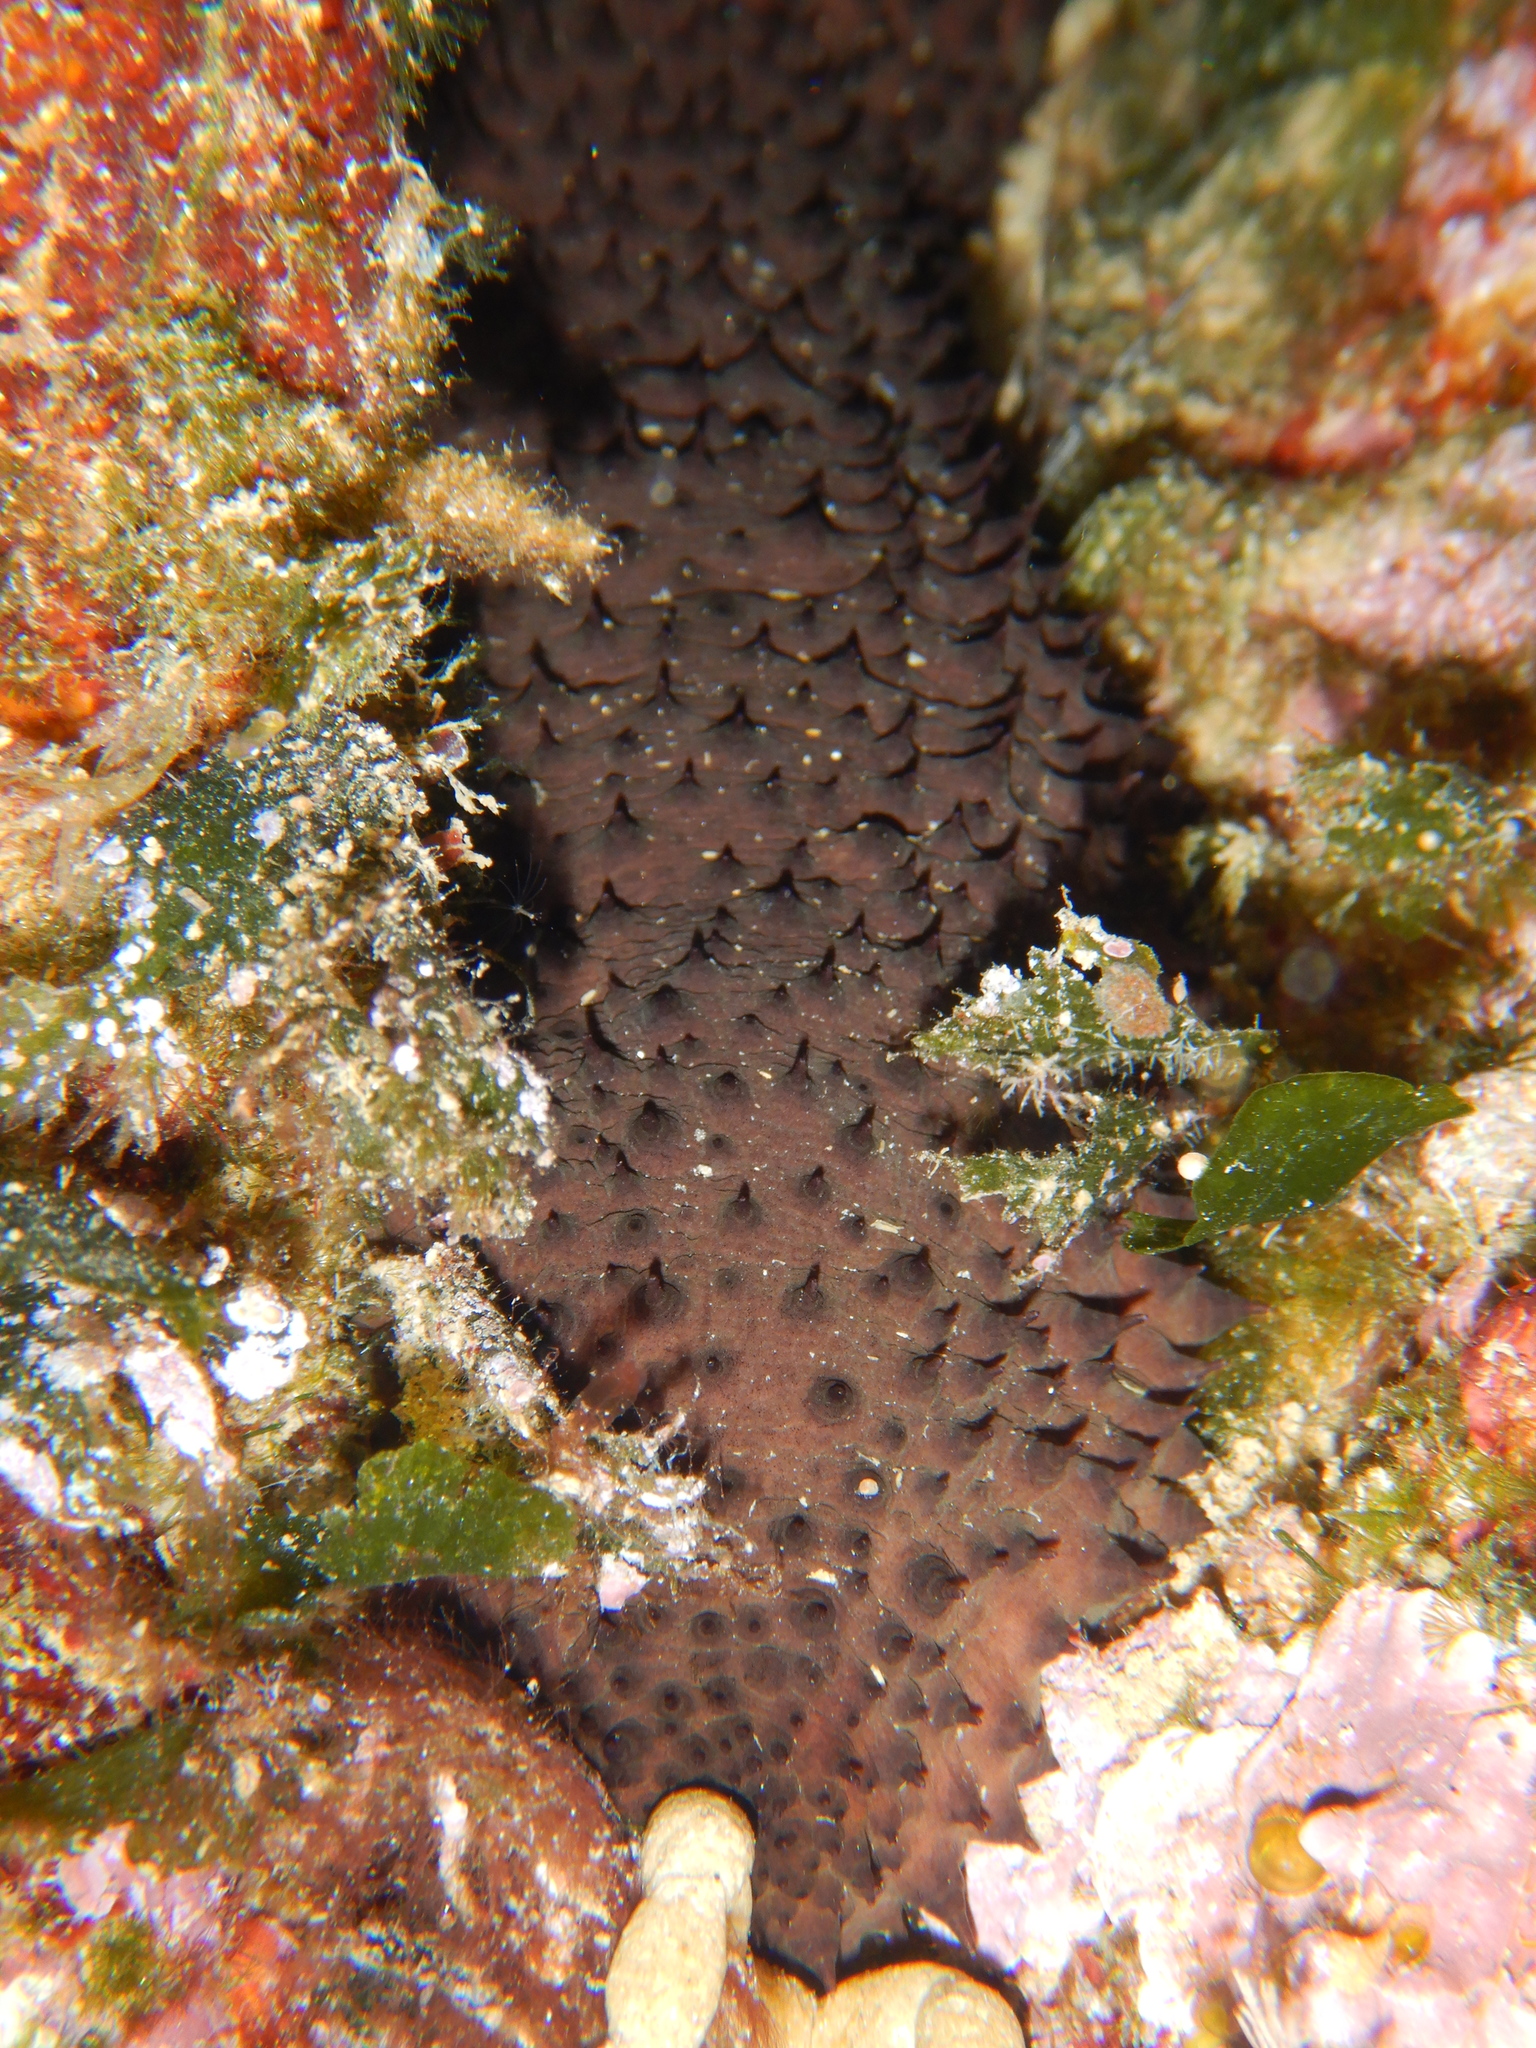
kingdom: Animalia
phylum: Echinodermata
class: Holothuroidea
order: Holothuriida
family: Holothuriidae
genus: Holothuria
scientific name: Holothuria sanctori
